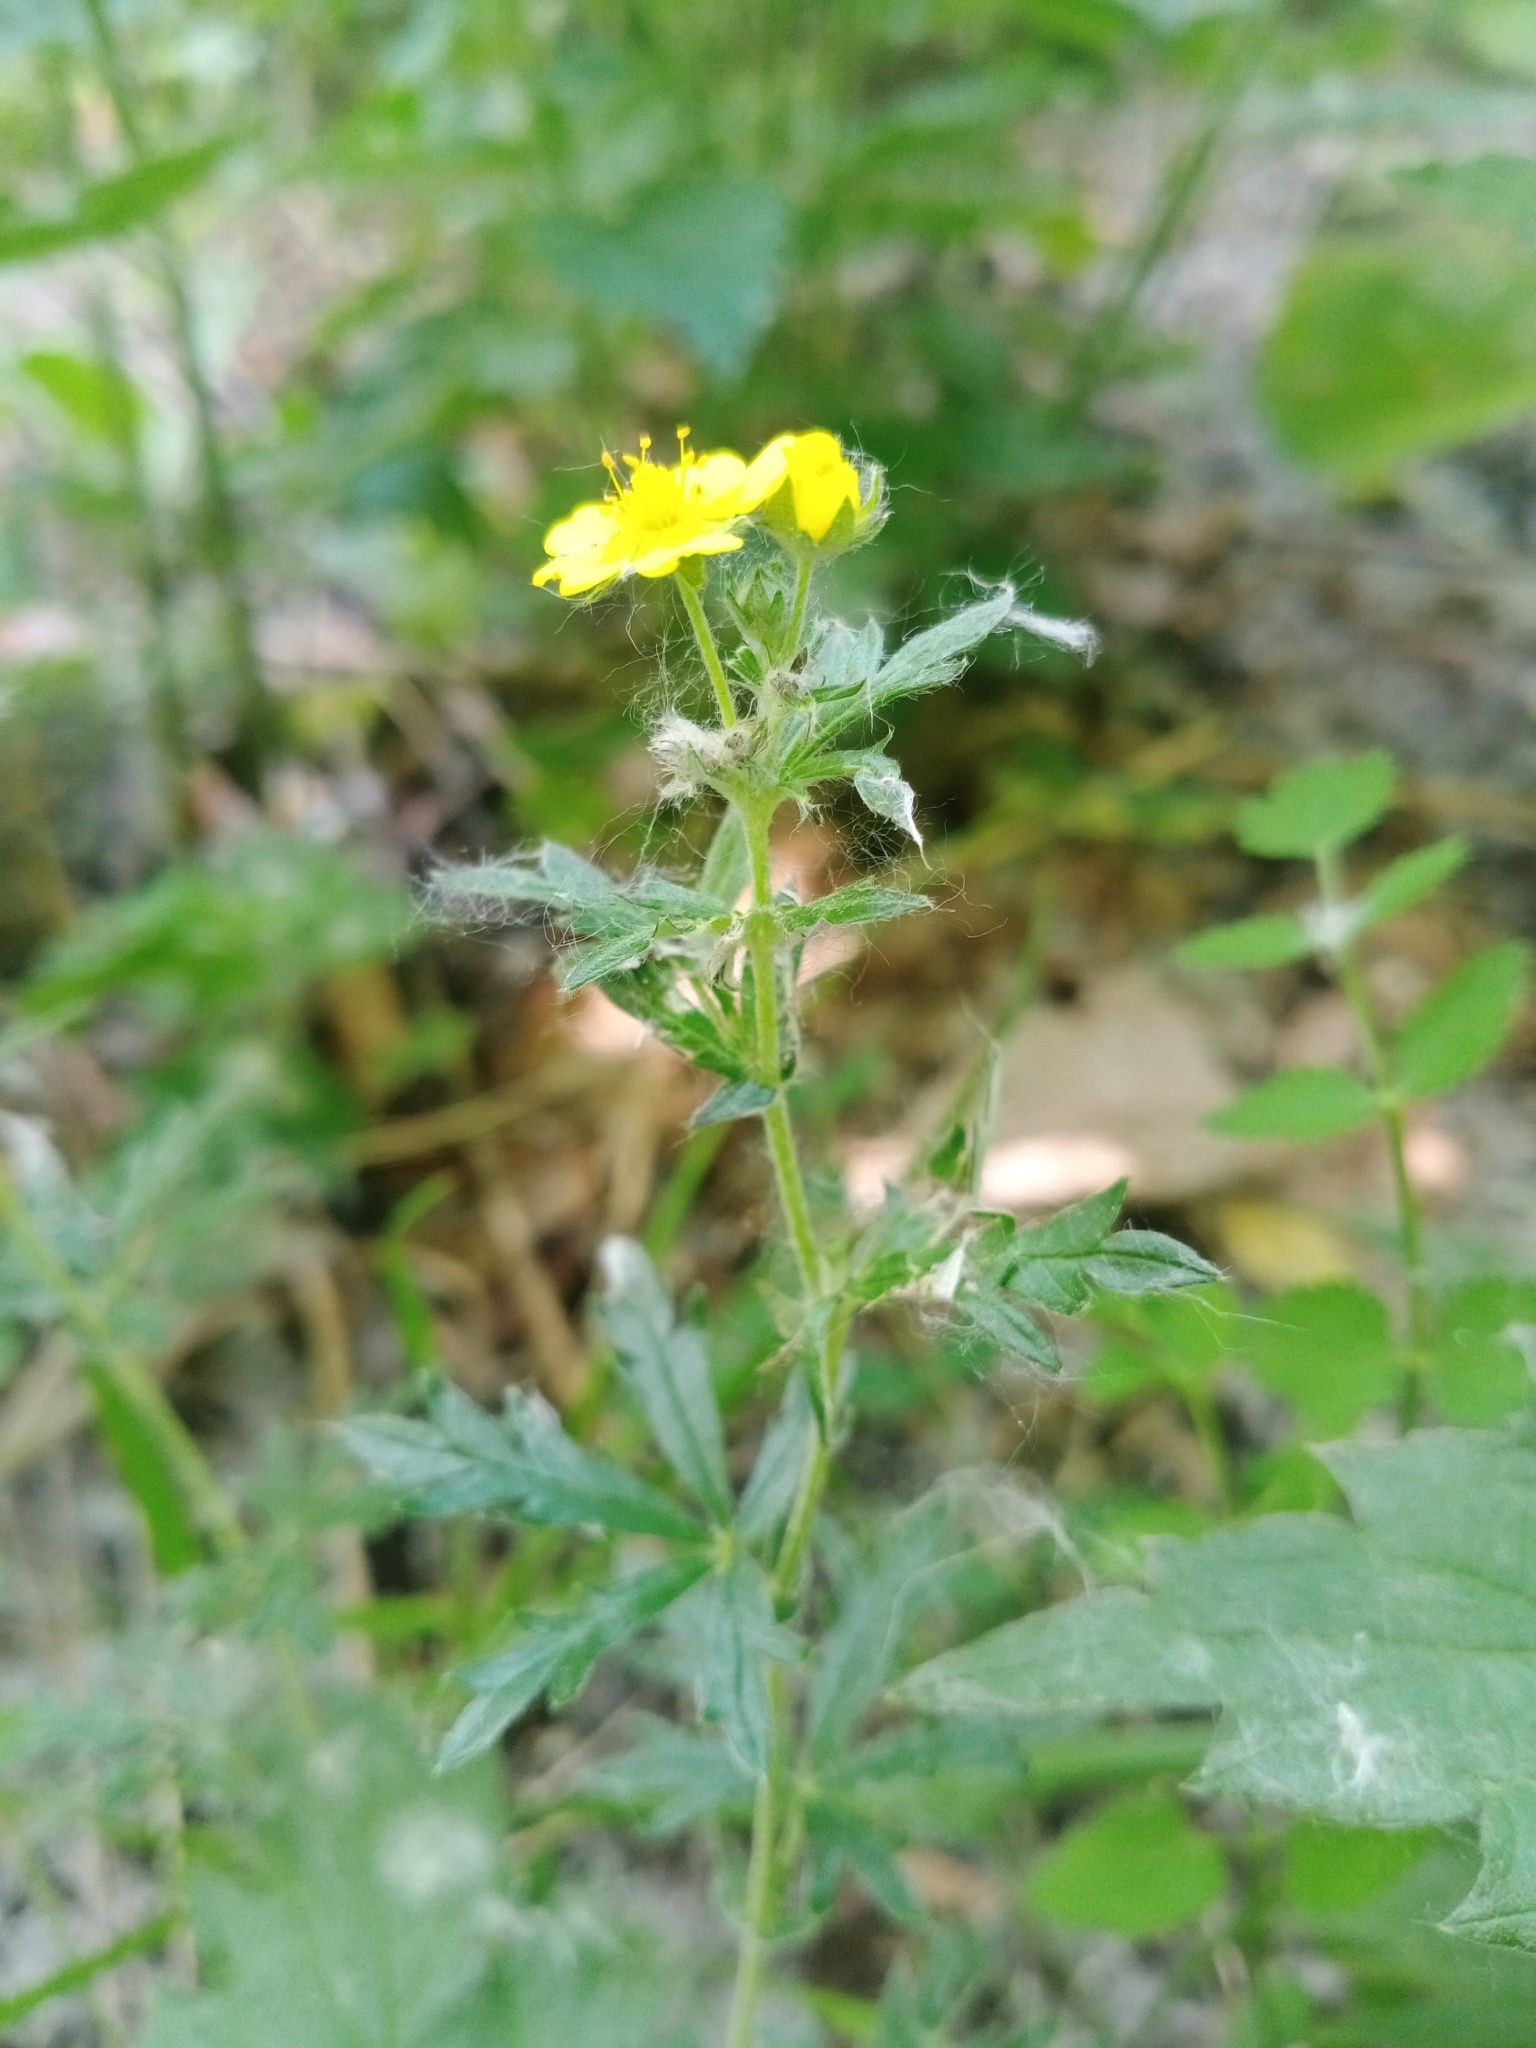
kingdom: Plantae
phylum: Tracheophyta
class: Magnoliopsida
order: Rosales
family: Rosaceae
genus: Potentilla
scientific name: Potentilla argentea
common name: Hoary cinquefoil
